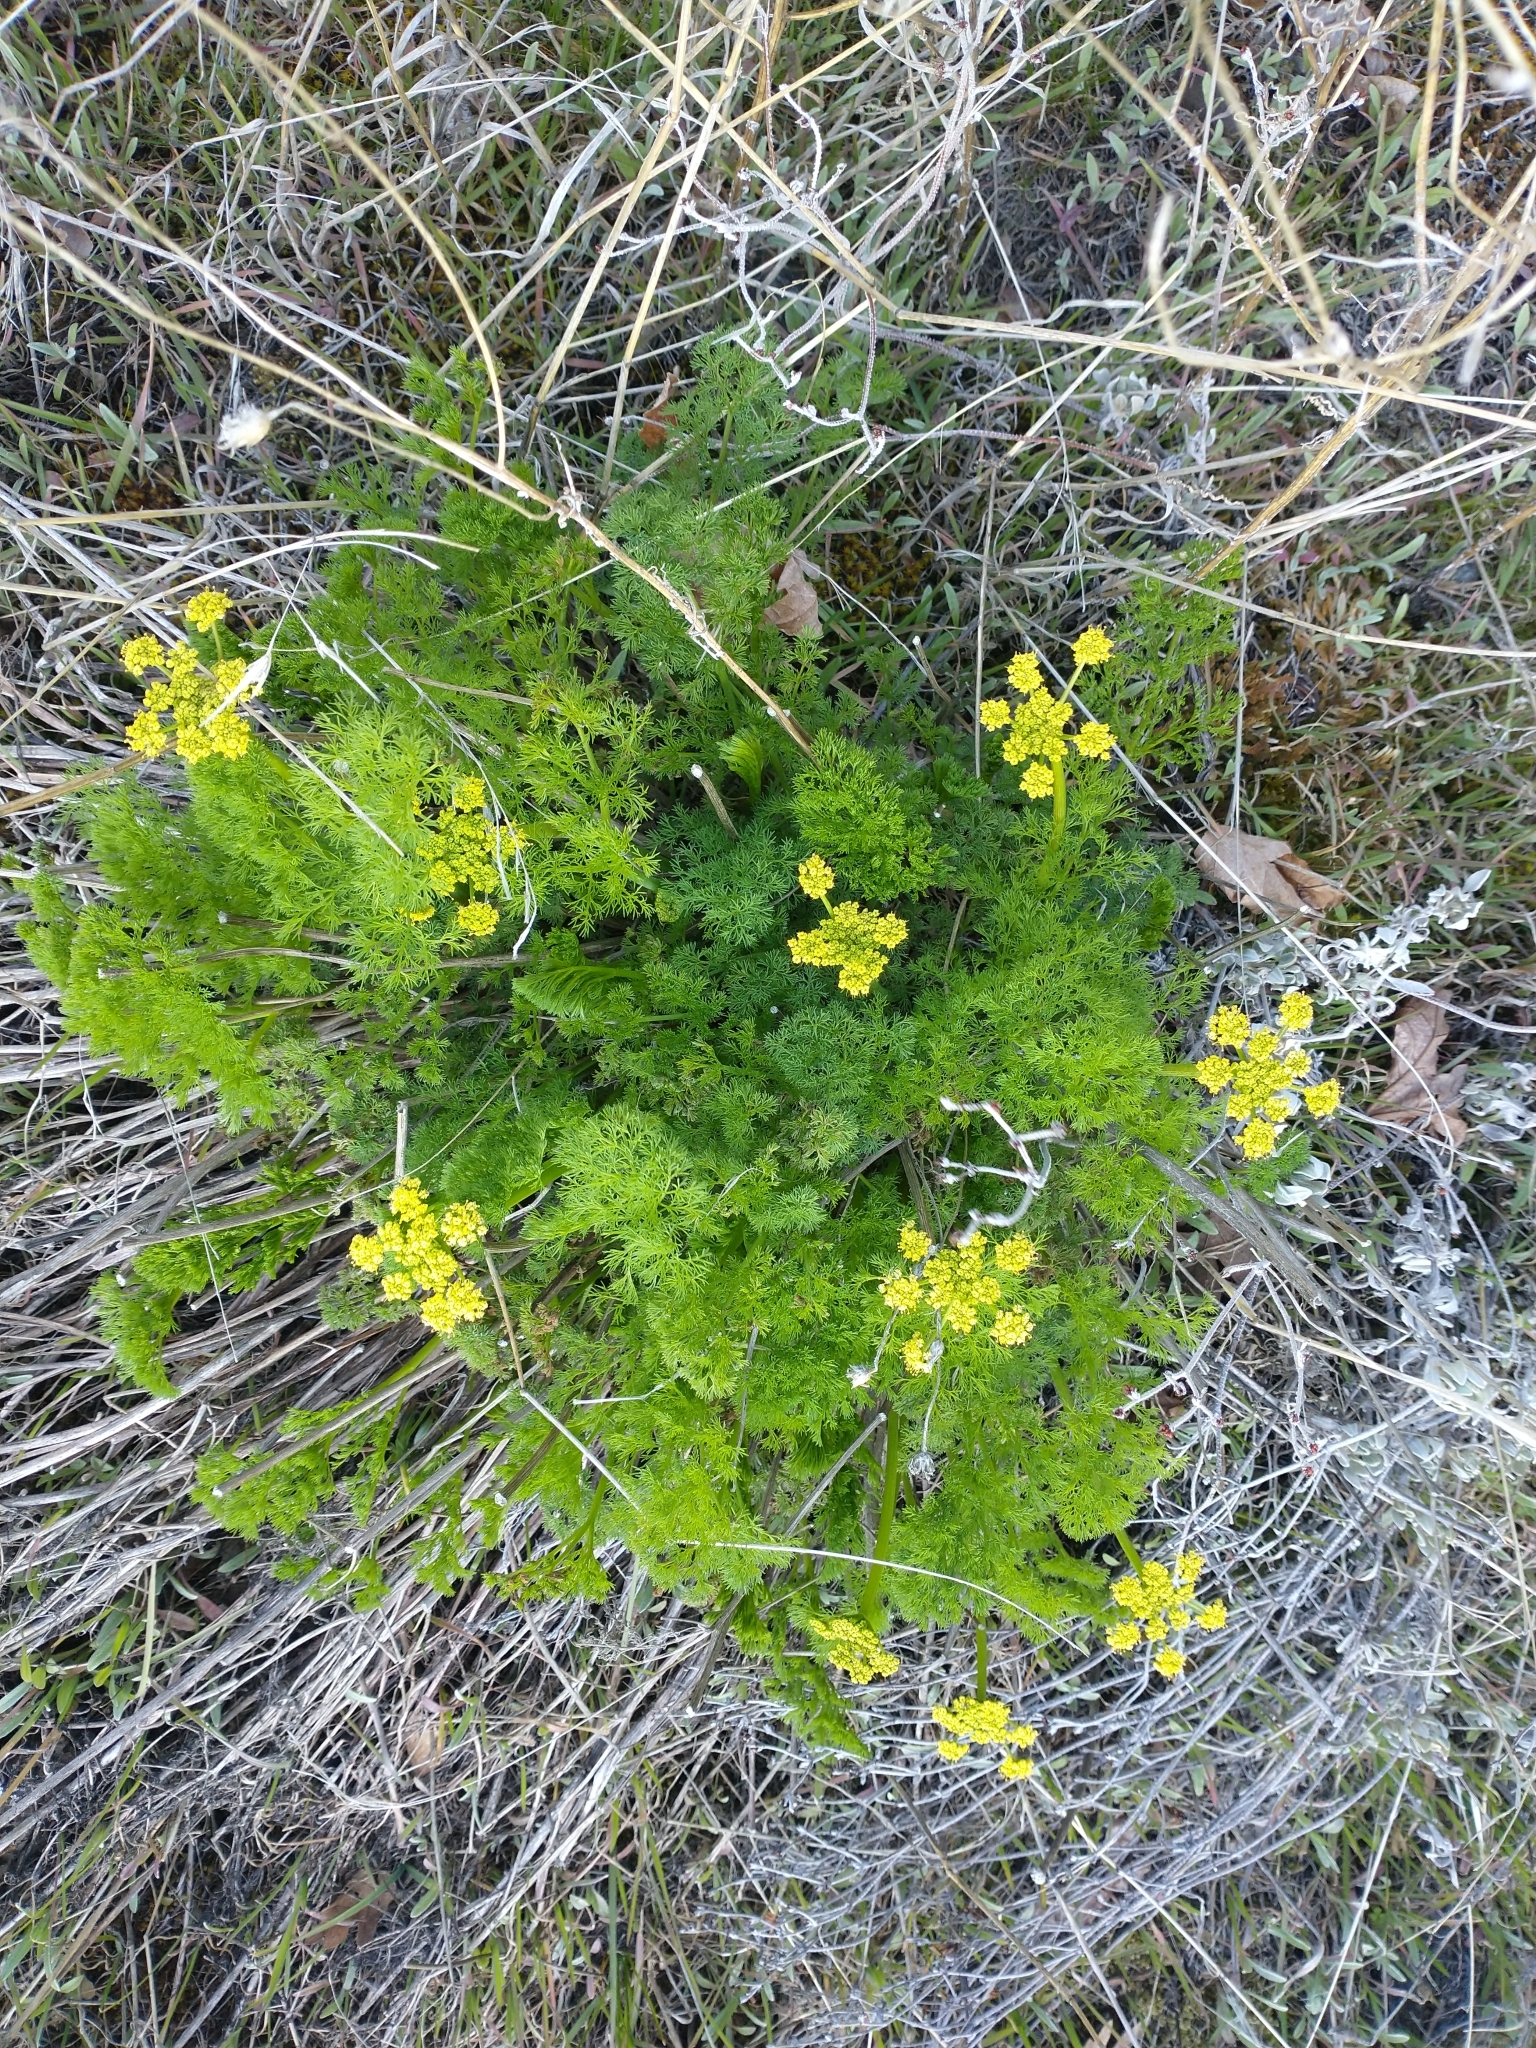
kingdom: Plantae
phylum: Tracheophyta
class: Magnoliopsida
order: Apiales
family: Apiaceae
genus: Lomatium
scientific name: Lomatium klickitatense
